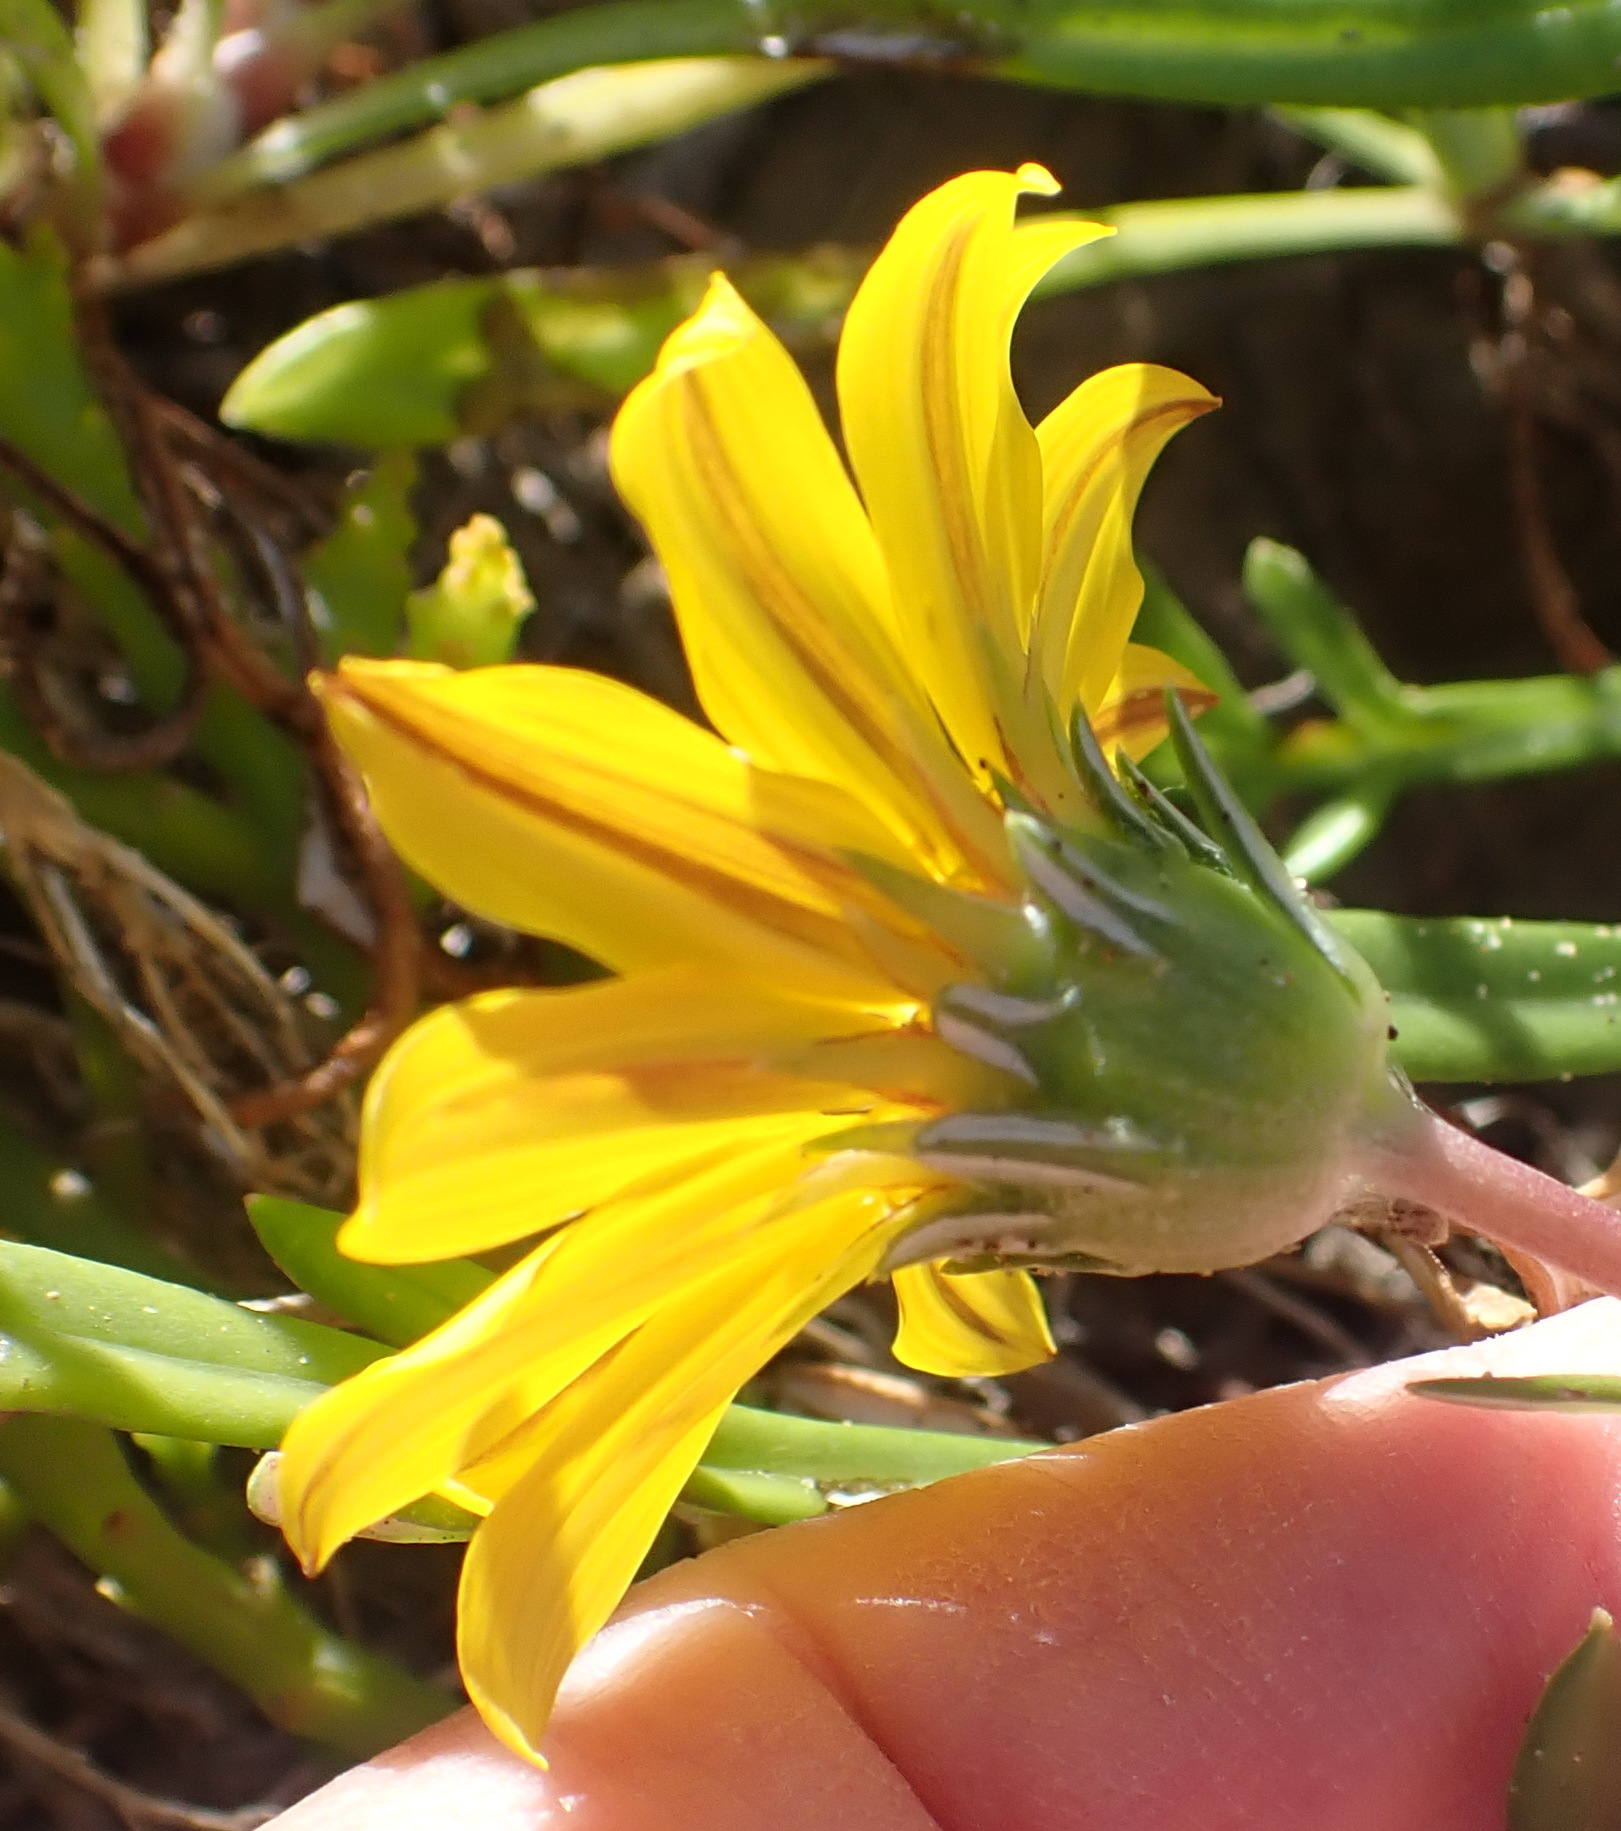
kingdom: Plantae
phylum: Tracheophyta
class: Magnoliopsida
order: Asterales
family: Asteraceae
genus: Gazania
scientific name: Gazania rigens
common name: Treasureflower
